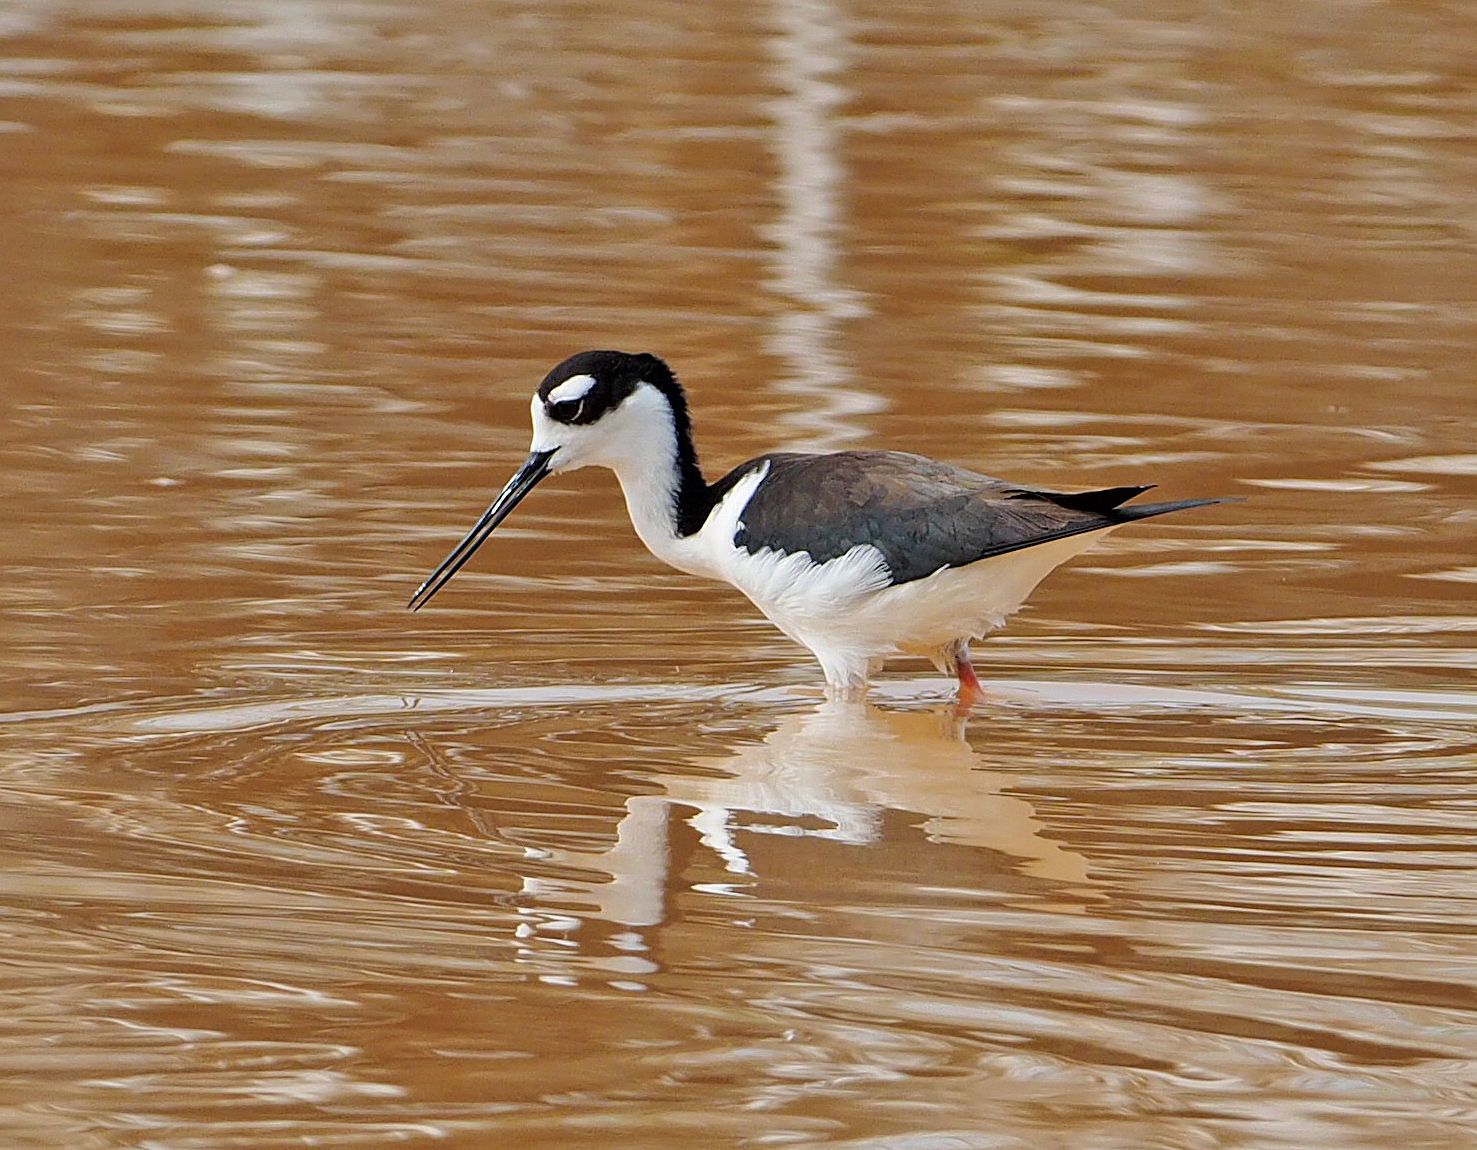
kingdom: Animalia
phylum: Chordata
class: Aves
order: Charadriiformes
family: Recurvirostridae
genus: Himantopus
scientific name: Himantopus mexicanus
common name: Black-necked stilt
